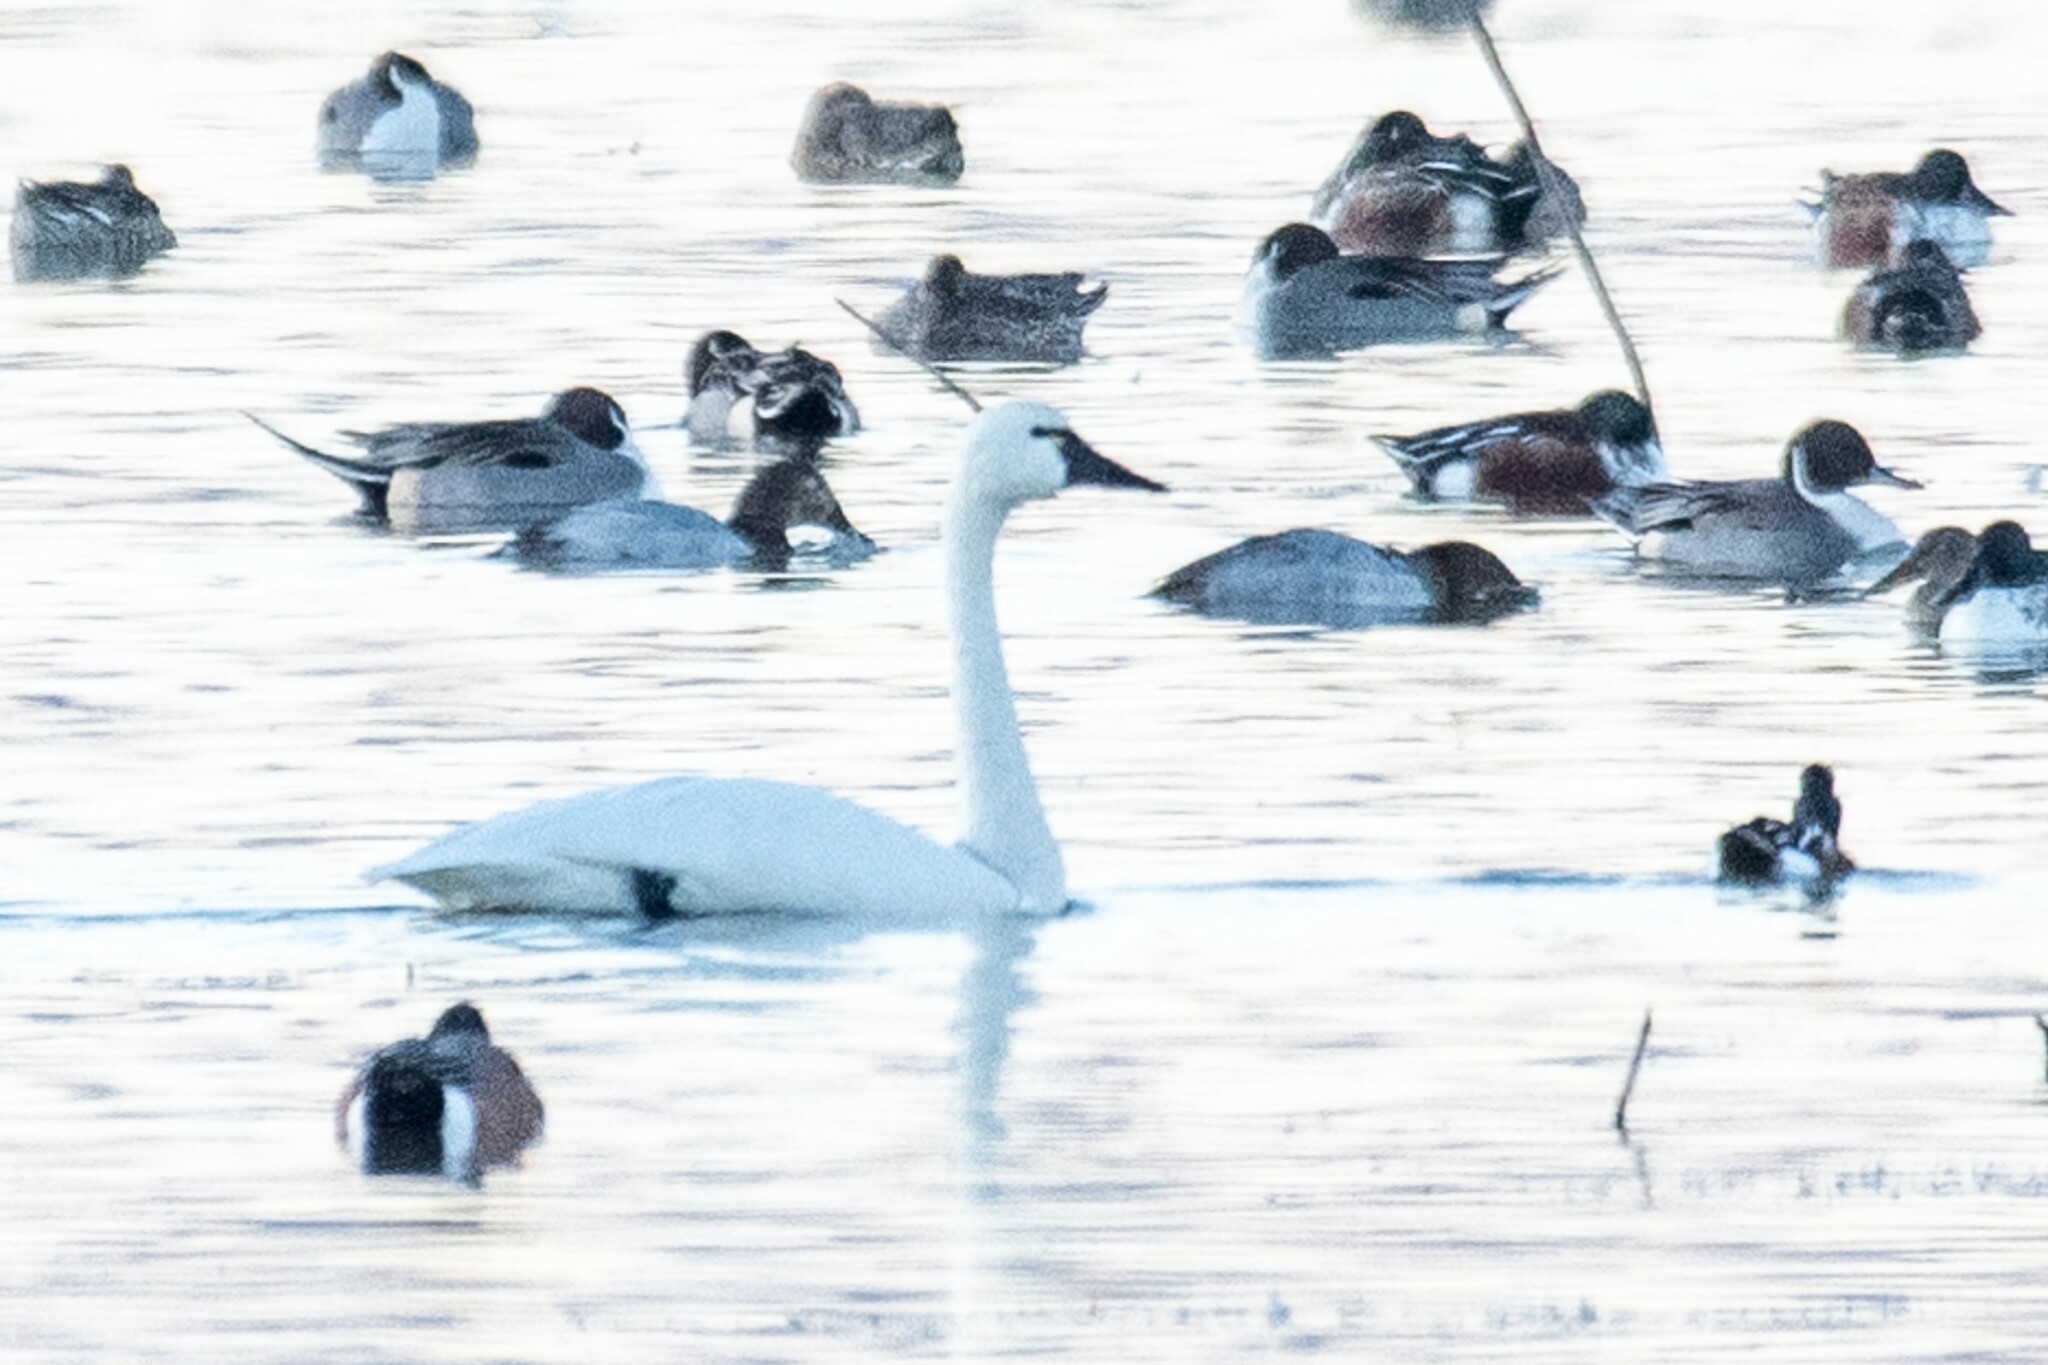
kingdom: Animalia
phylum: Chordata
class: Aves
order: Anseriformes
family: Anatidae
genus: Cygnus
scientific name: Cygnus columbianus
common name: Tundra swan
